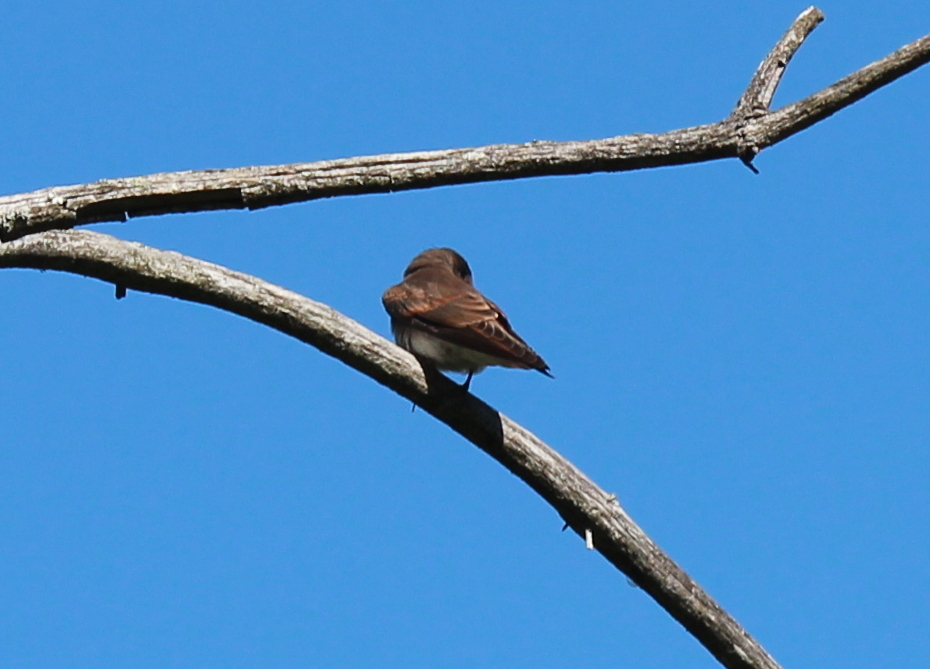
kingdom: Animalia
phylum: Chordata
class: Aves
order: Passeriformes
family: Hirundinidae
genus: Stelgidopteryx
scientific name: Stelgidopteryx serripennis
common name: Northern rough-winged swallow
